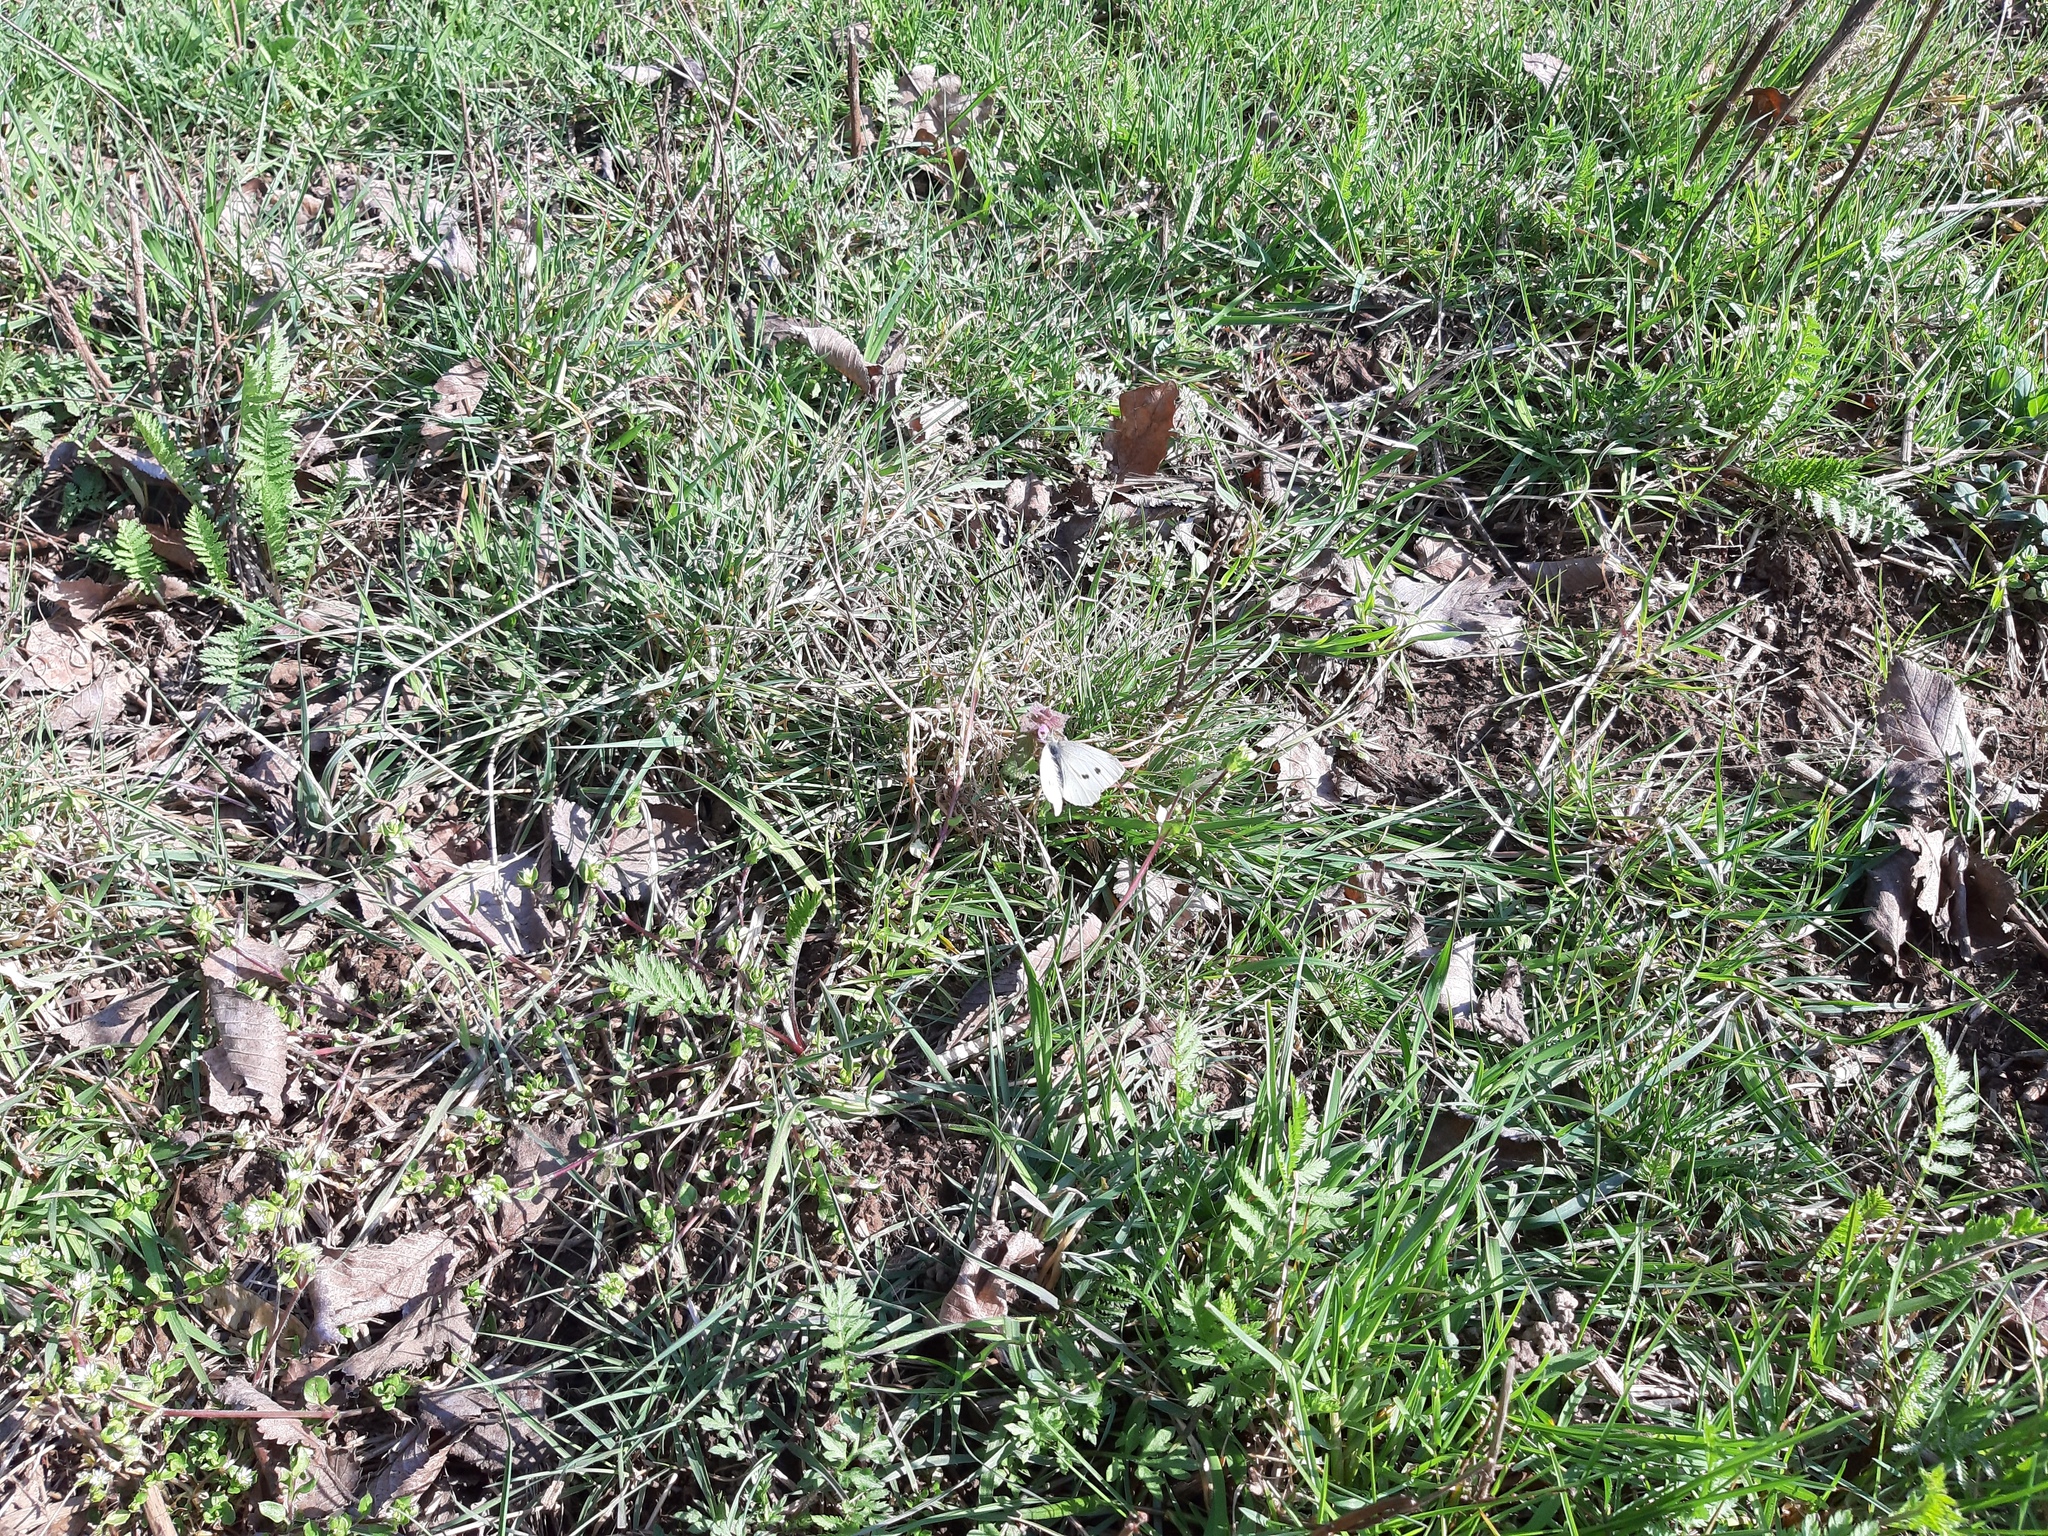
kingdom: Animalia
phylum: Arthropoda
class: Insecta
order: Lepidoptera
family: Pieridae
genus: Pieris
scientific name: Pieris rapae
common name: Small white
